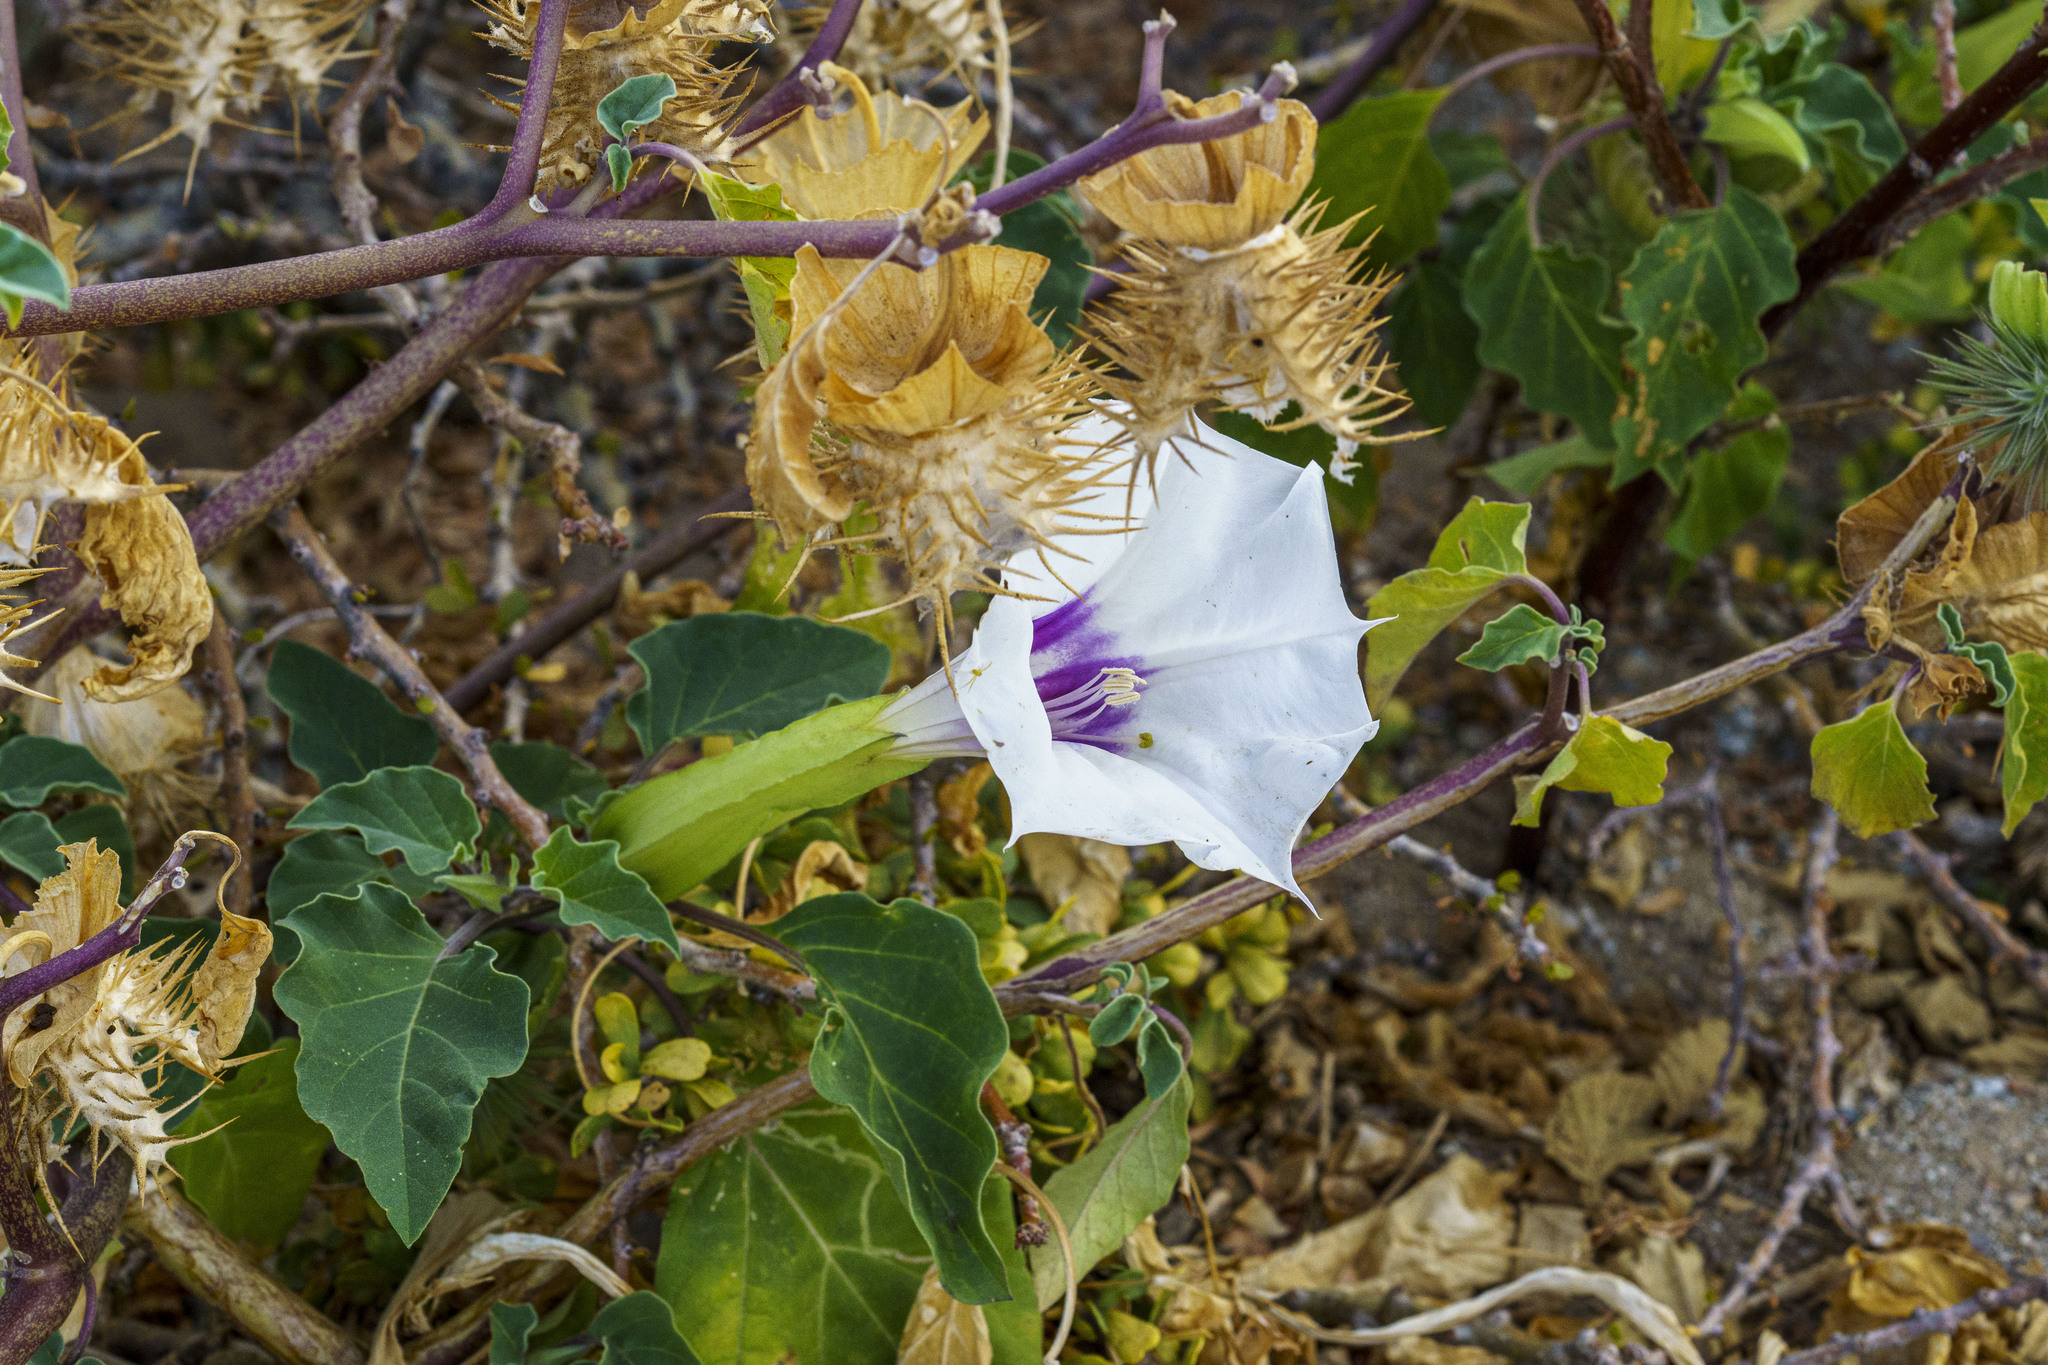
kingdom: Plantae
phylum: Tracheophyta
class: Magnoliopsida
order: Solanales
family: Solanaceae
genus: Datura
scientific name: Datura discolor
